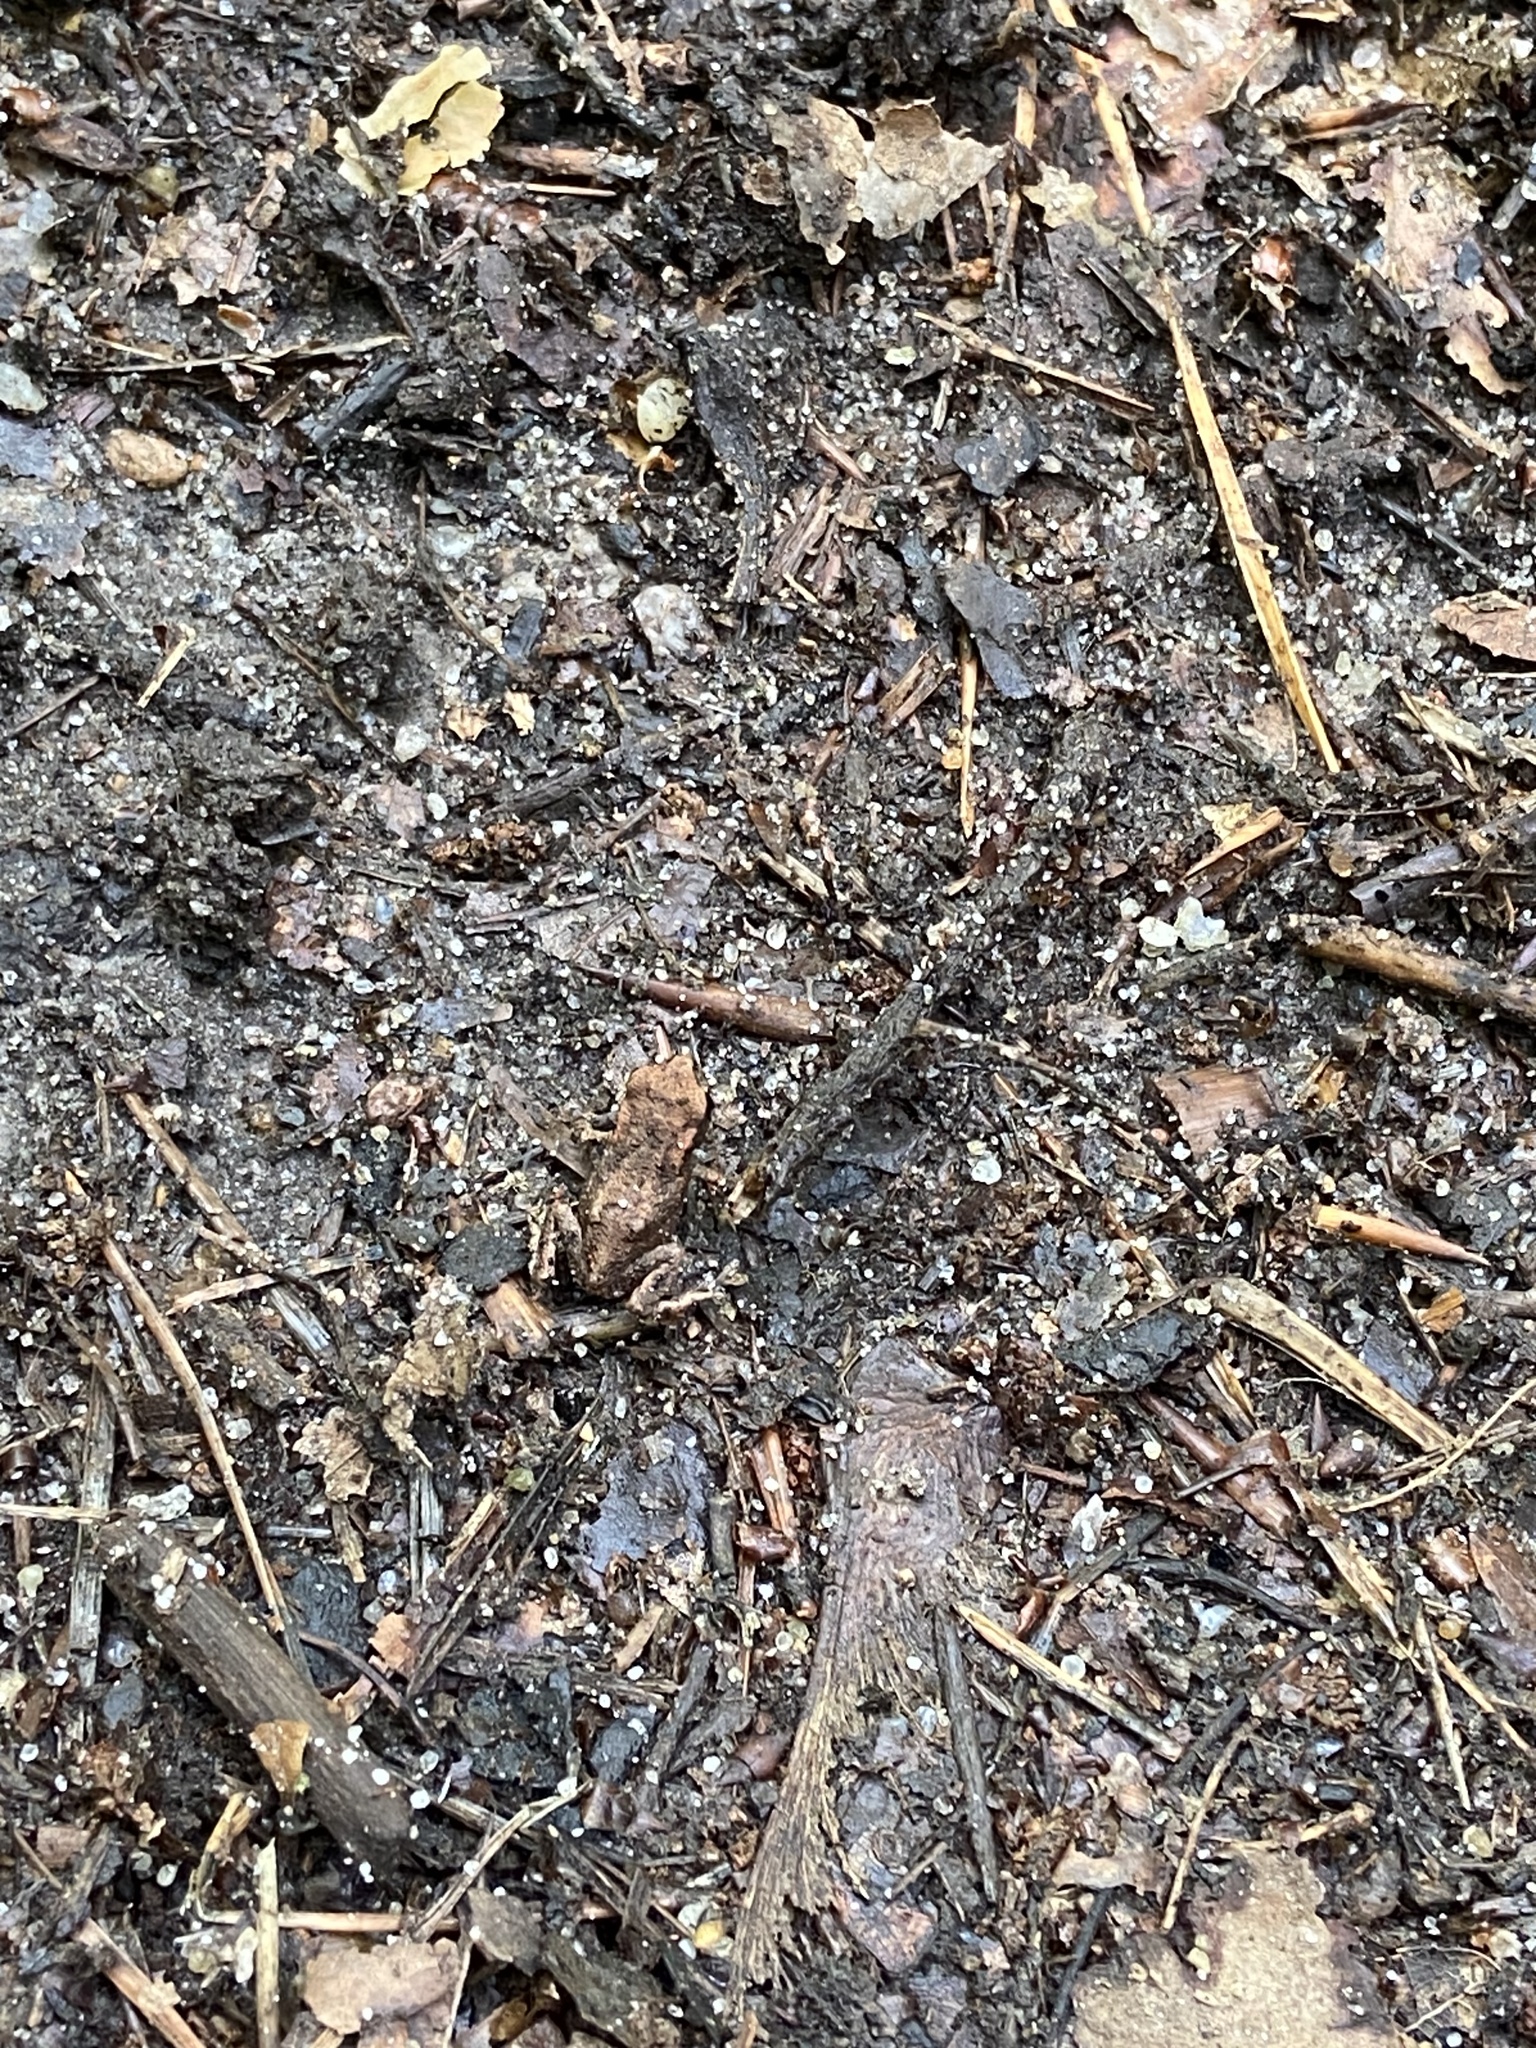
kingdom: Animalia
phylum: Chordata
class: Amphibia
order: Anura
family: Bufonidae
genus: Bufo
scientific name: Bufo bufo
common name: Common toad
